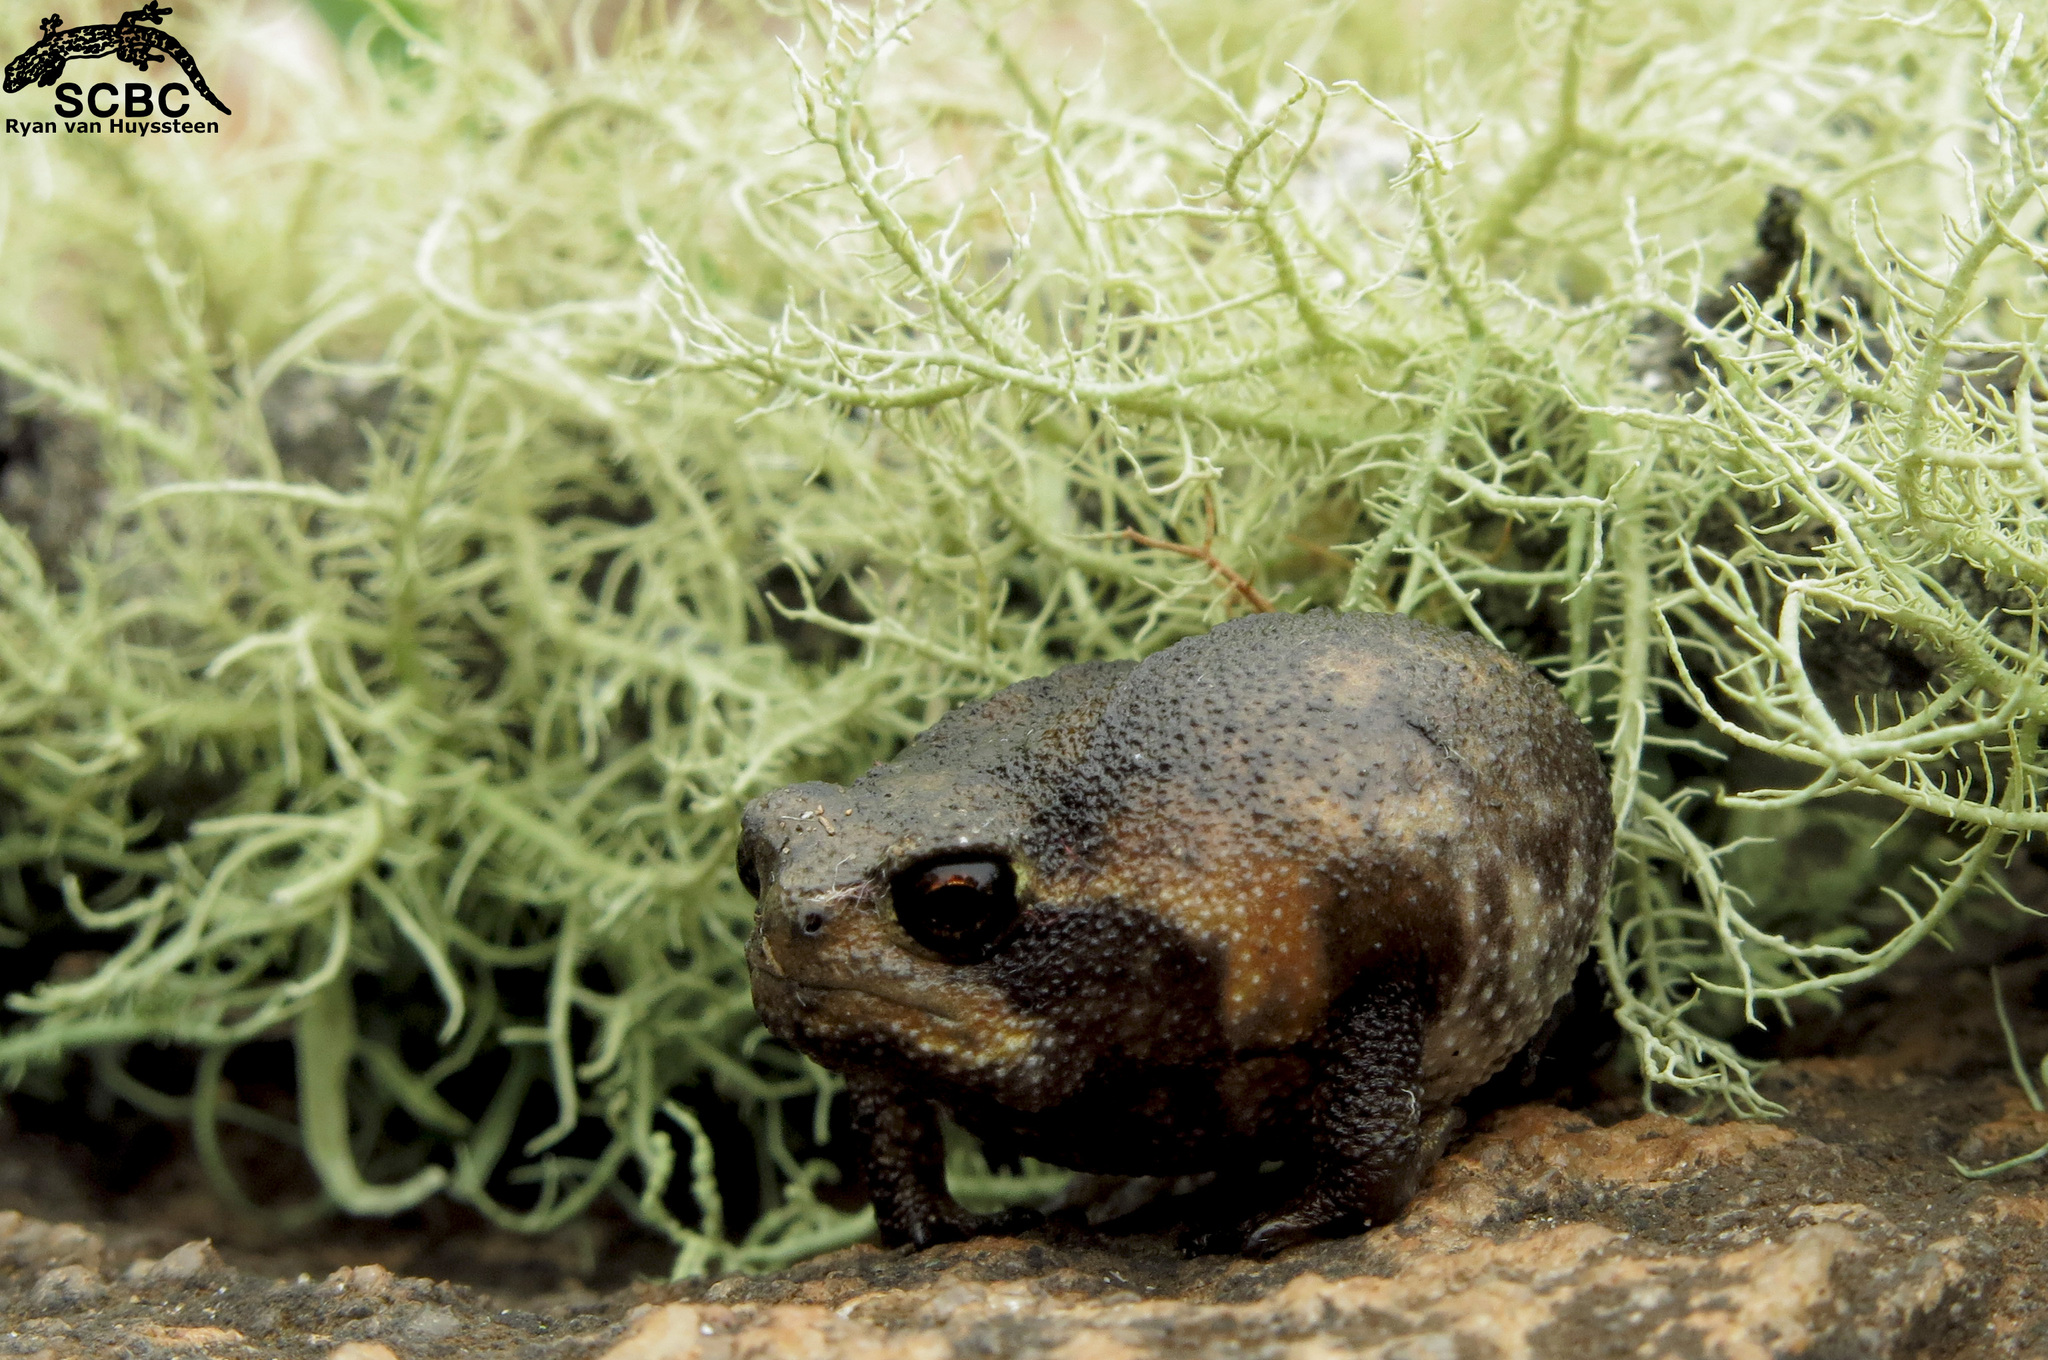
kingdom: Animalia
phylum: Chordata
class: Amphibia
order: Anura
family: Brevicipitidae
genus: Breviceps
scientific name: Breviceps sylvestris
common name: Northern forest rain frog
